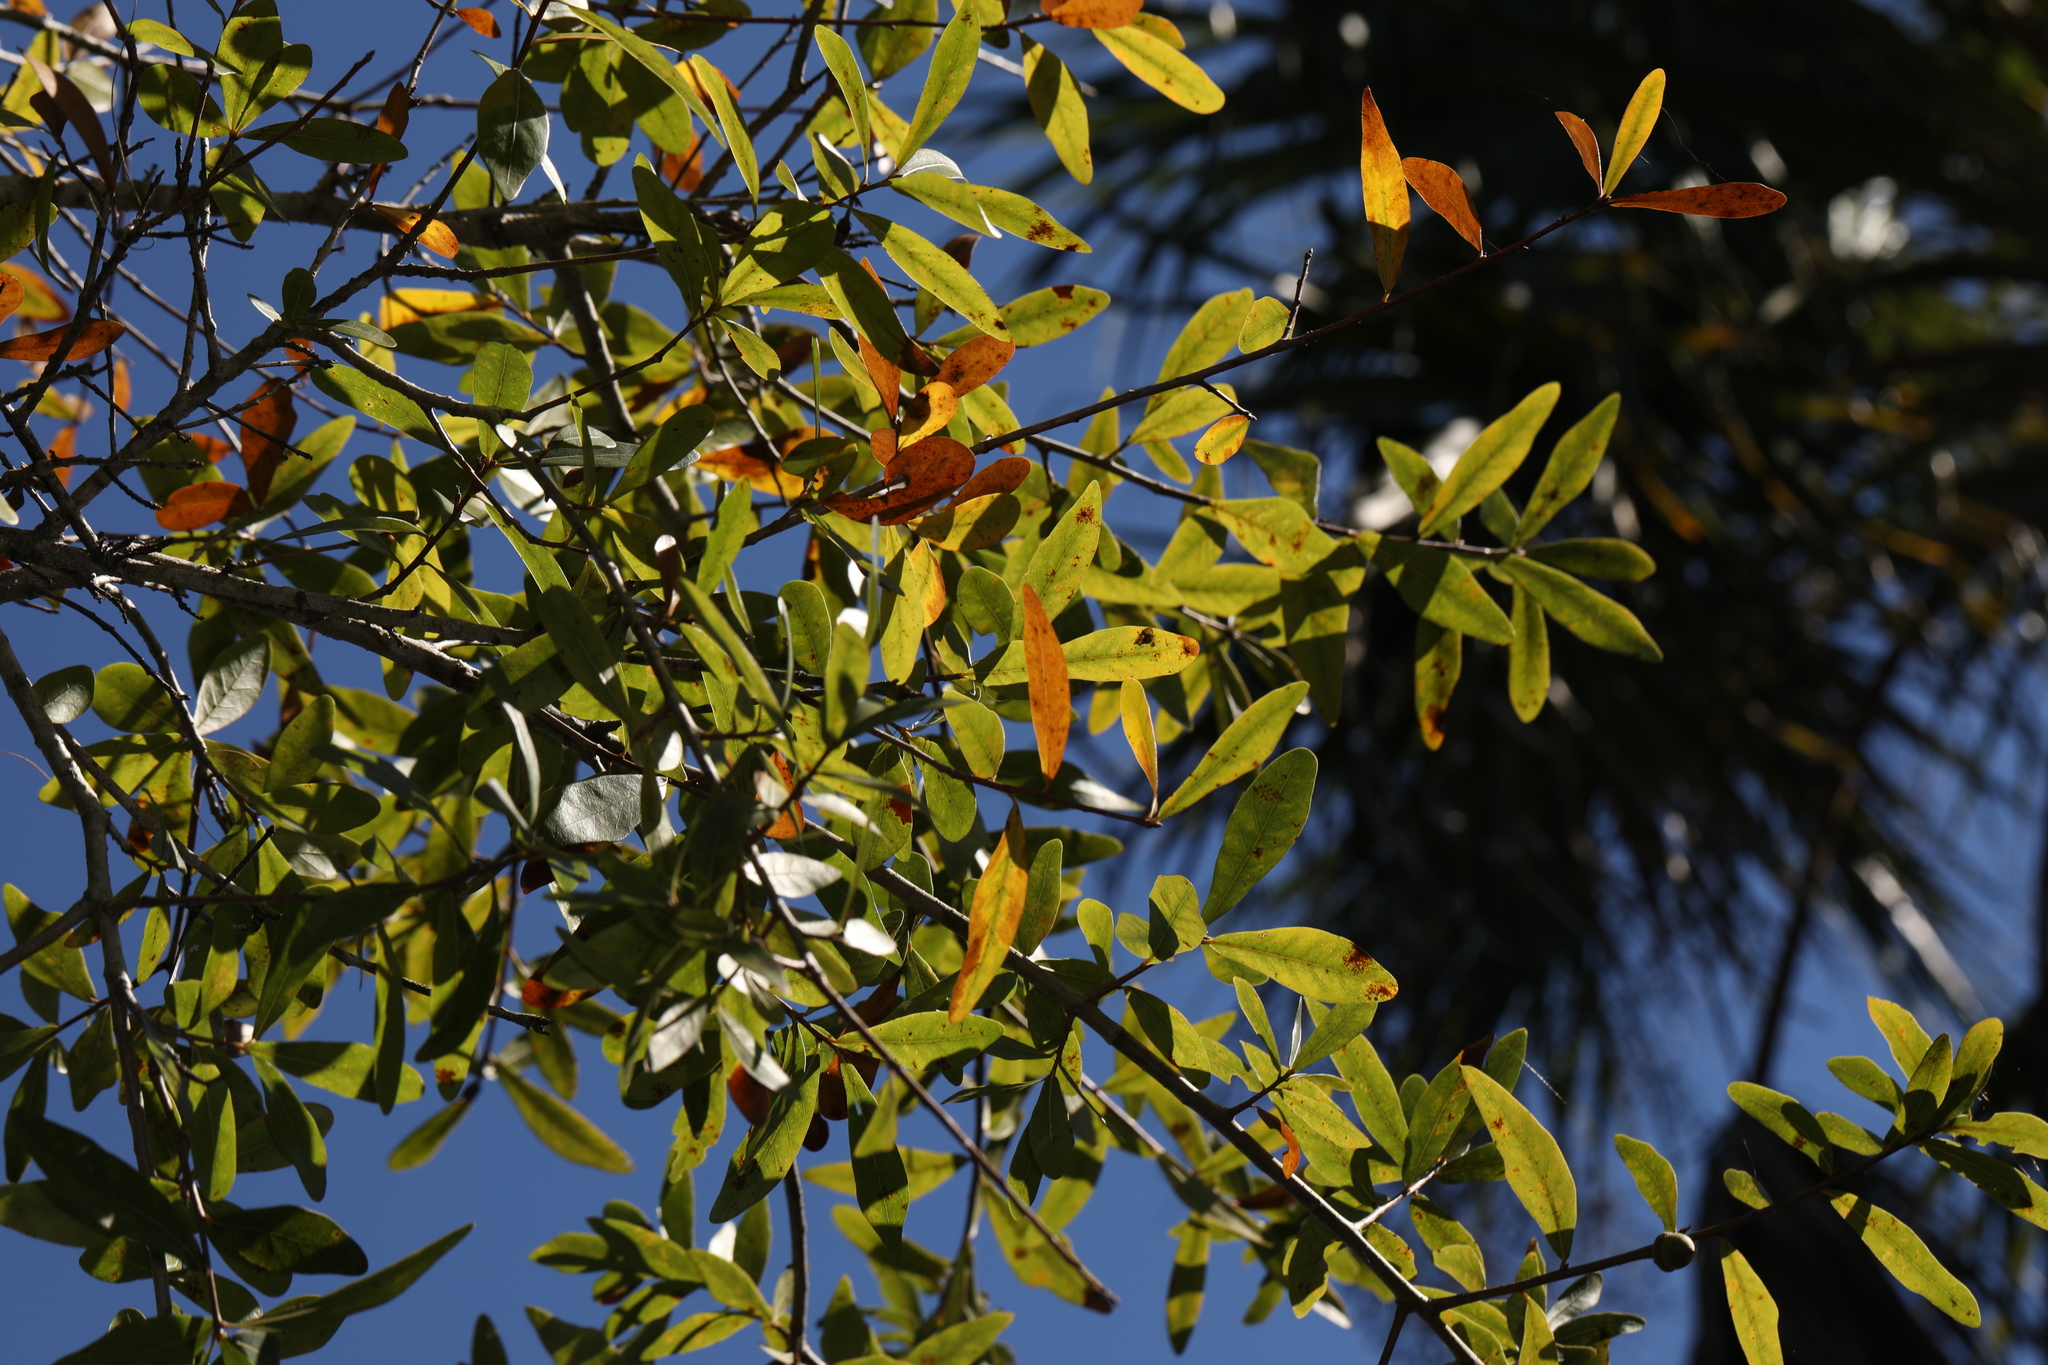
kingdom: Plantae
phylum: Tracheophyta
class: Magnoliopsida
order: Fagales
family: Fagaceae
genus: Quercus
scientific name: Quercus laurifolia
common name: Swamp laurel oak
